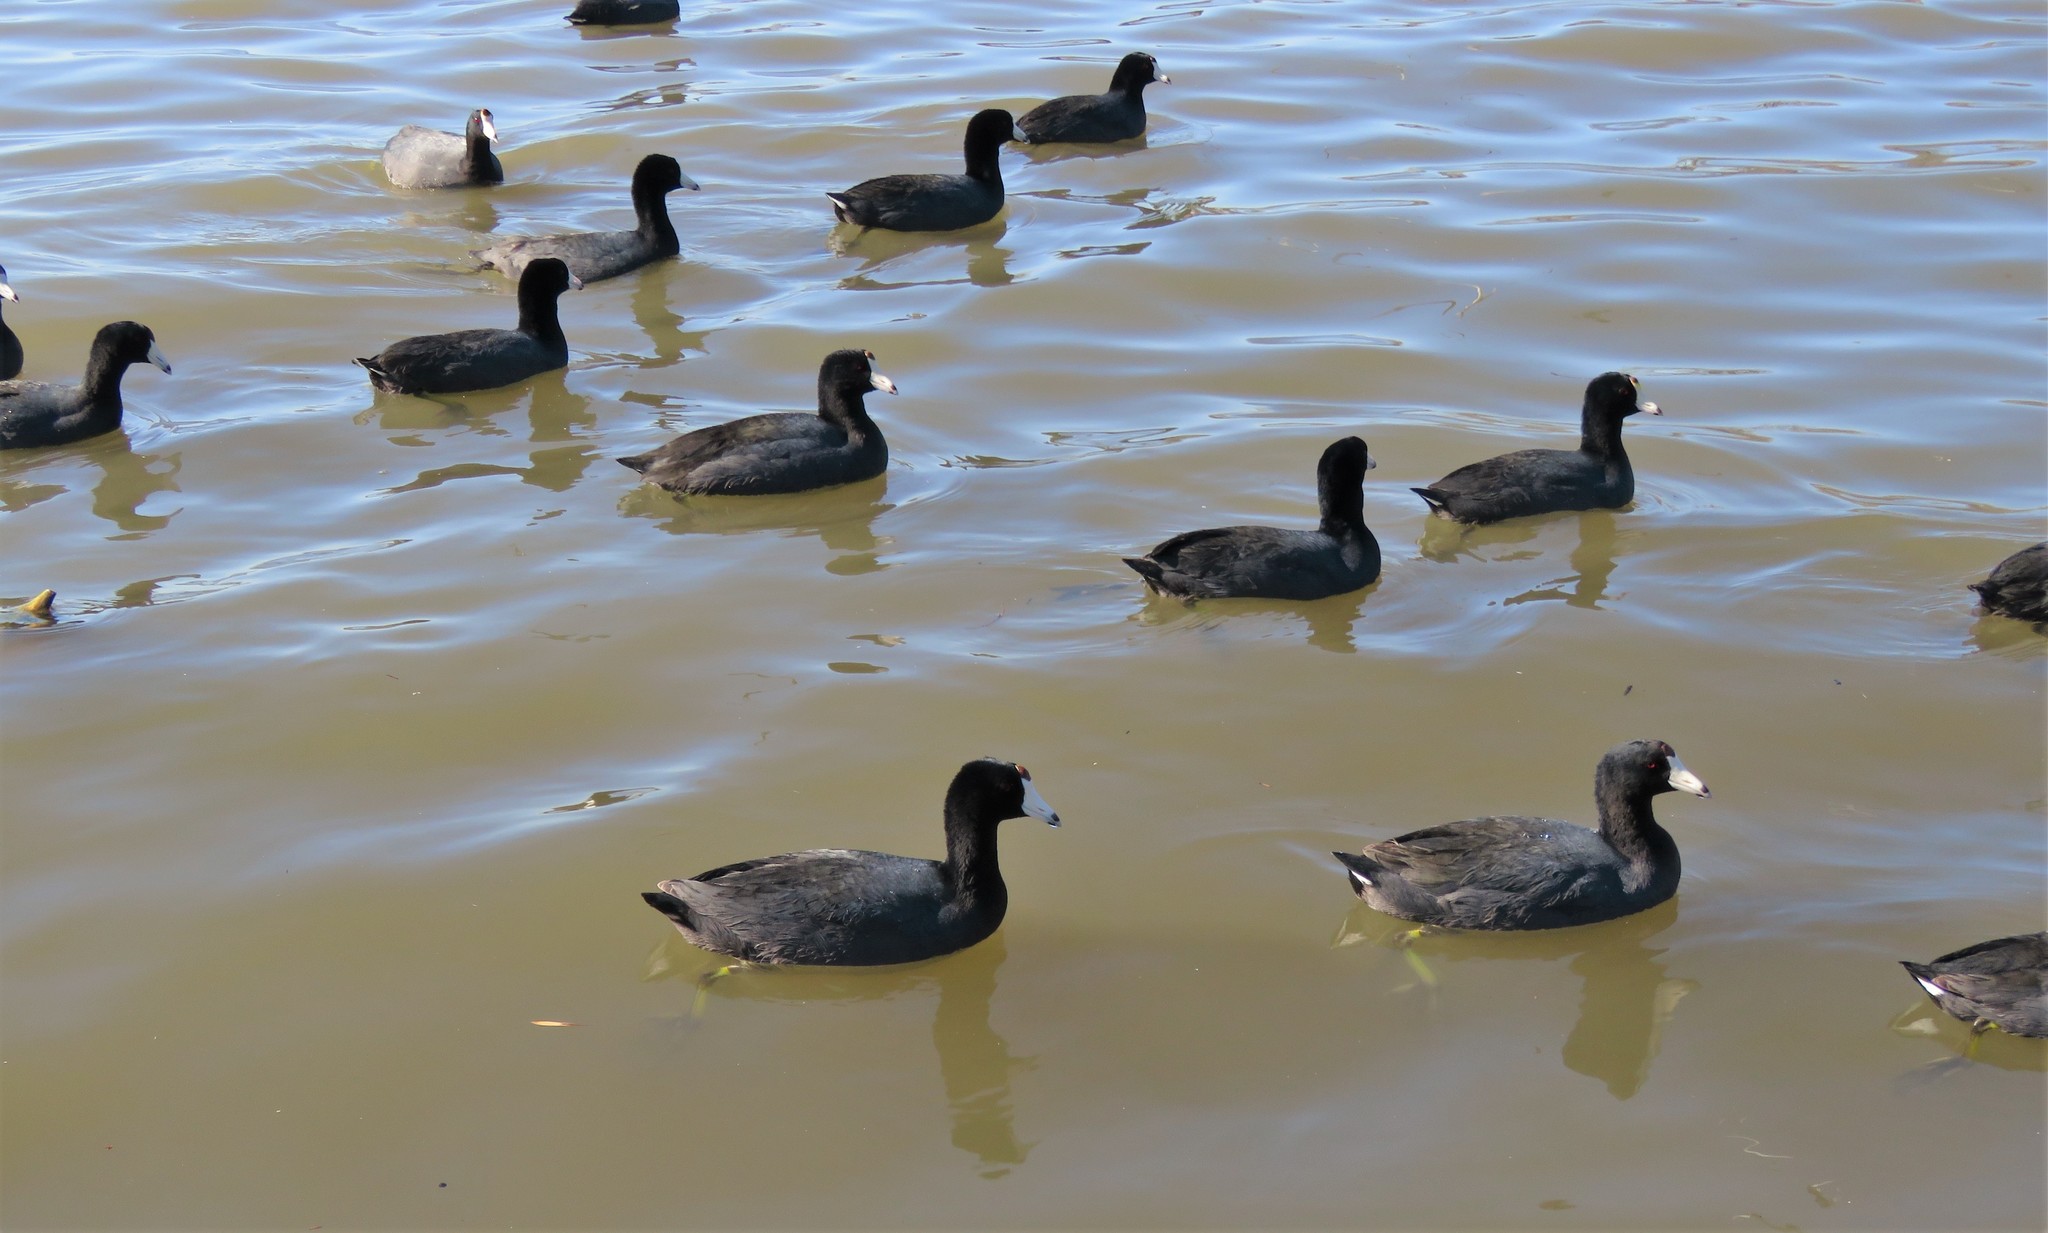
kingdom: Animalia
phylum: Chordata
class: Aves
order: Gruiformes
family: Rallidae
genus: Fulica
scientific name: Fulica americana
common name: American coot
